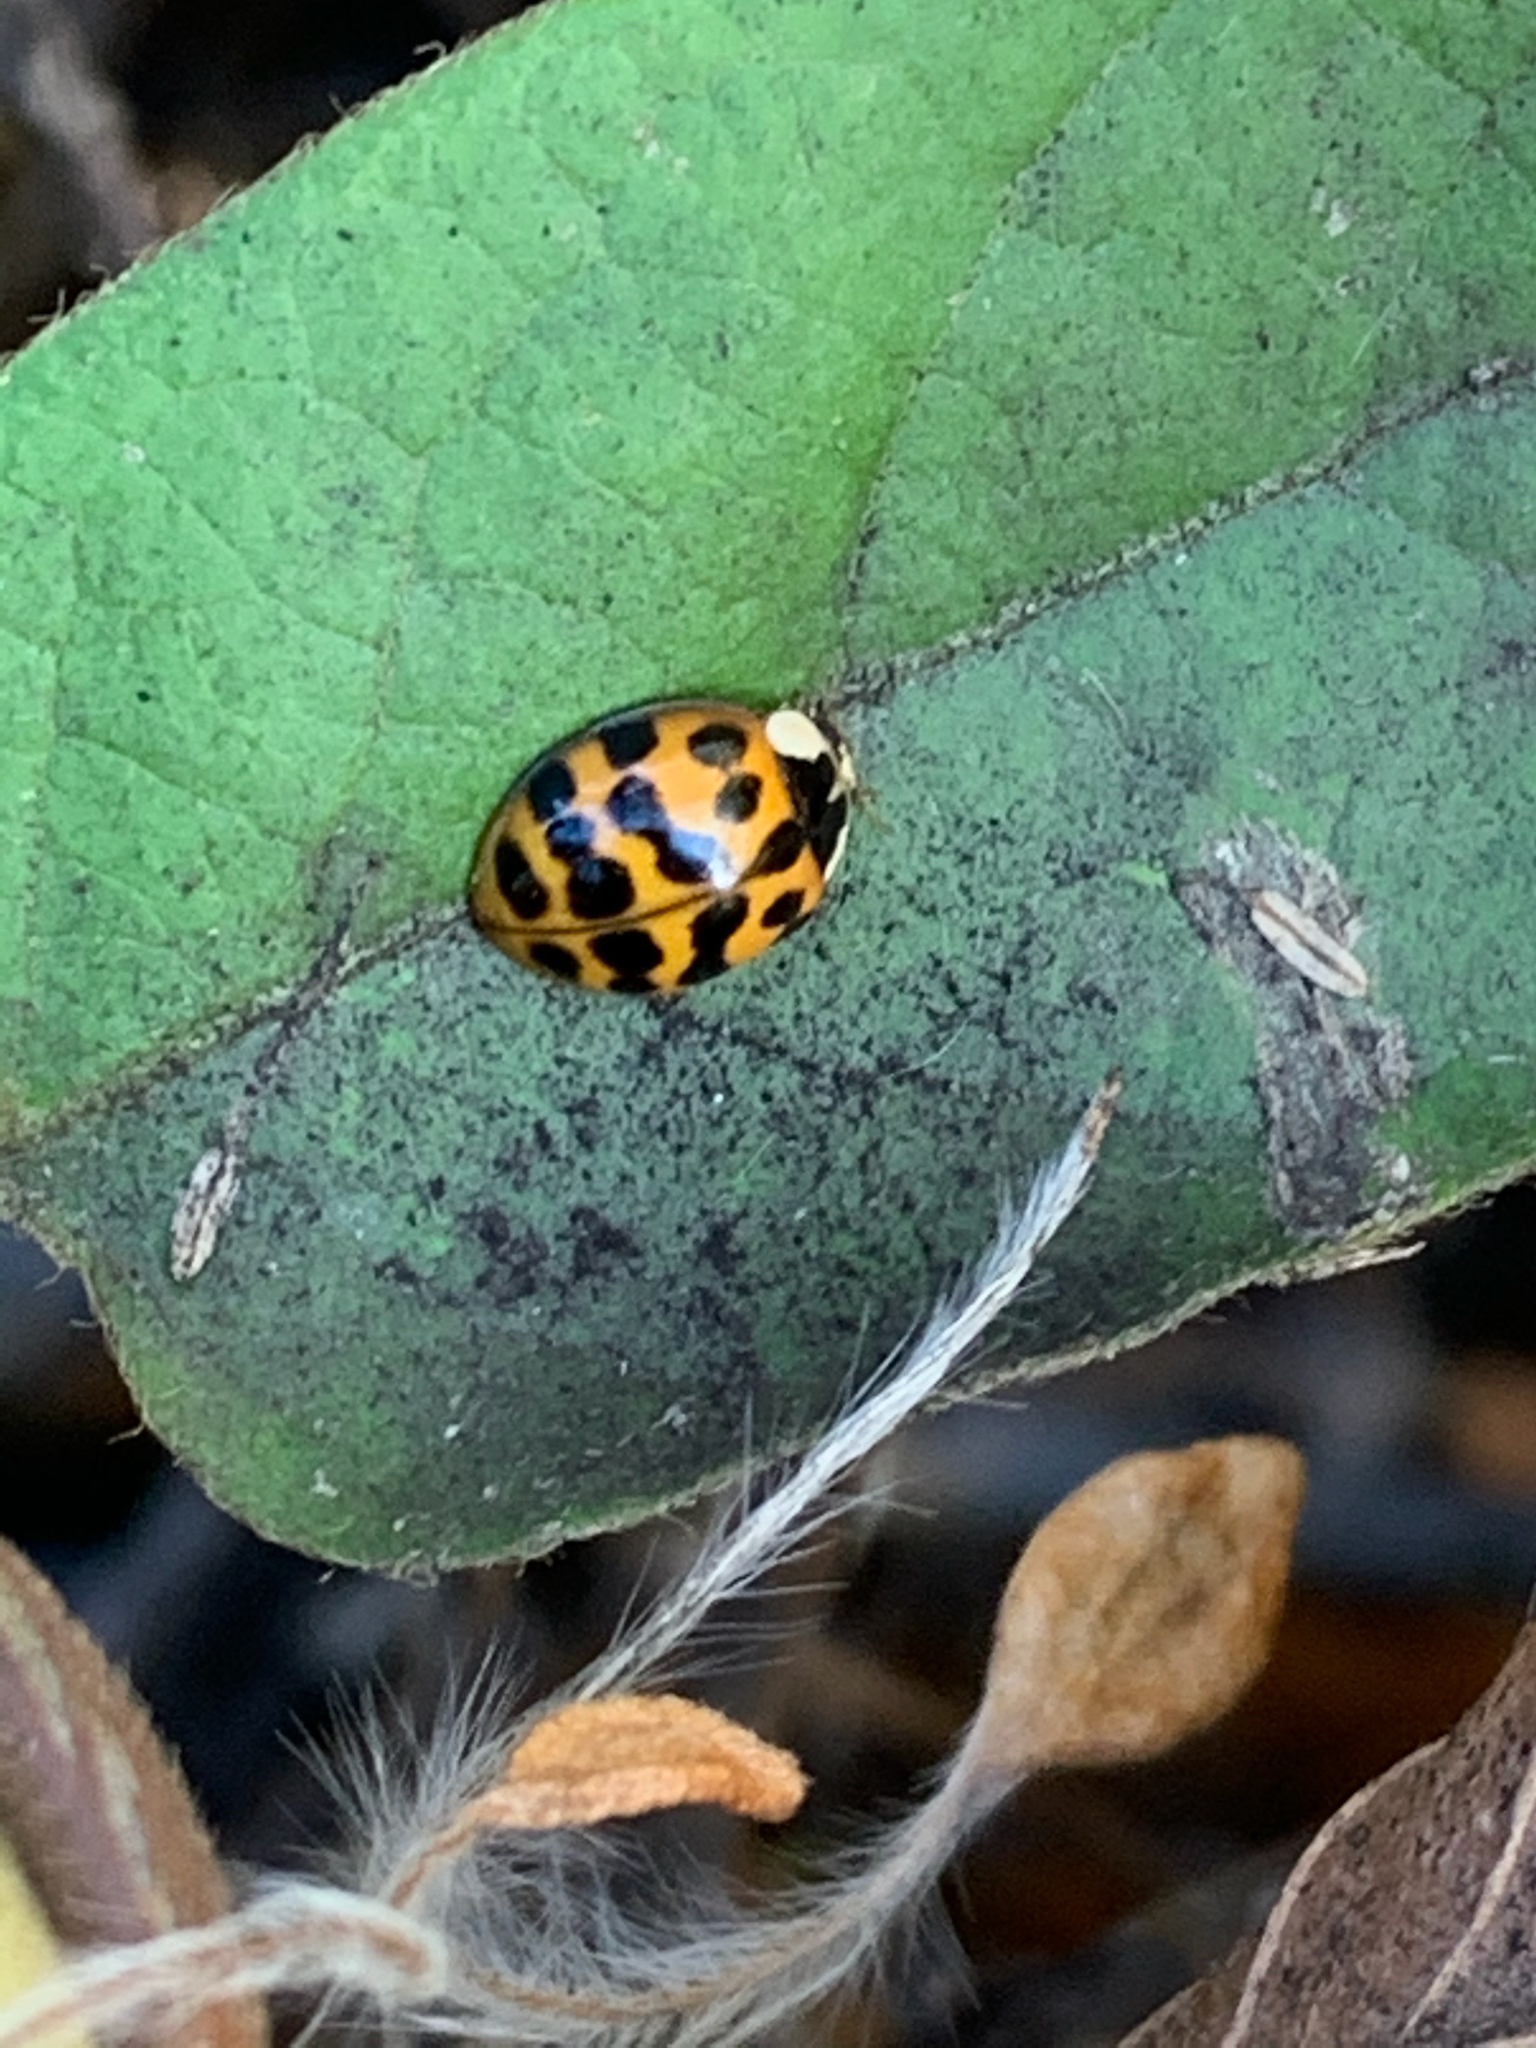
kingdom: Animalia
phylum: Arthropoda
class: Insecta
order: Coleoptera
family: Coccinellidae
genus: Harmonia
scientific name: Harmonia axyridis
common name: Harlequin ladybird
